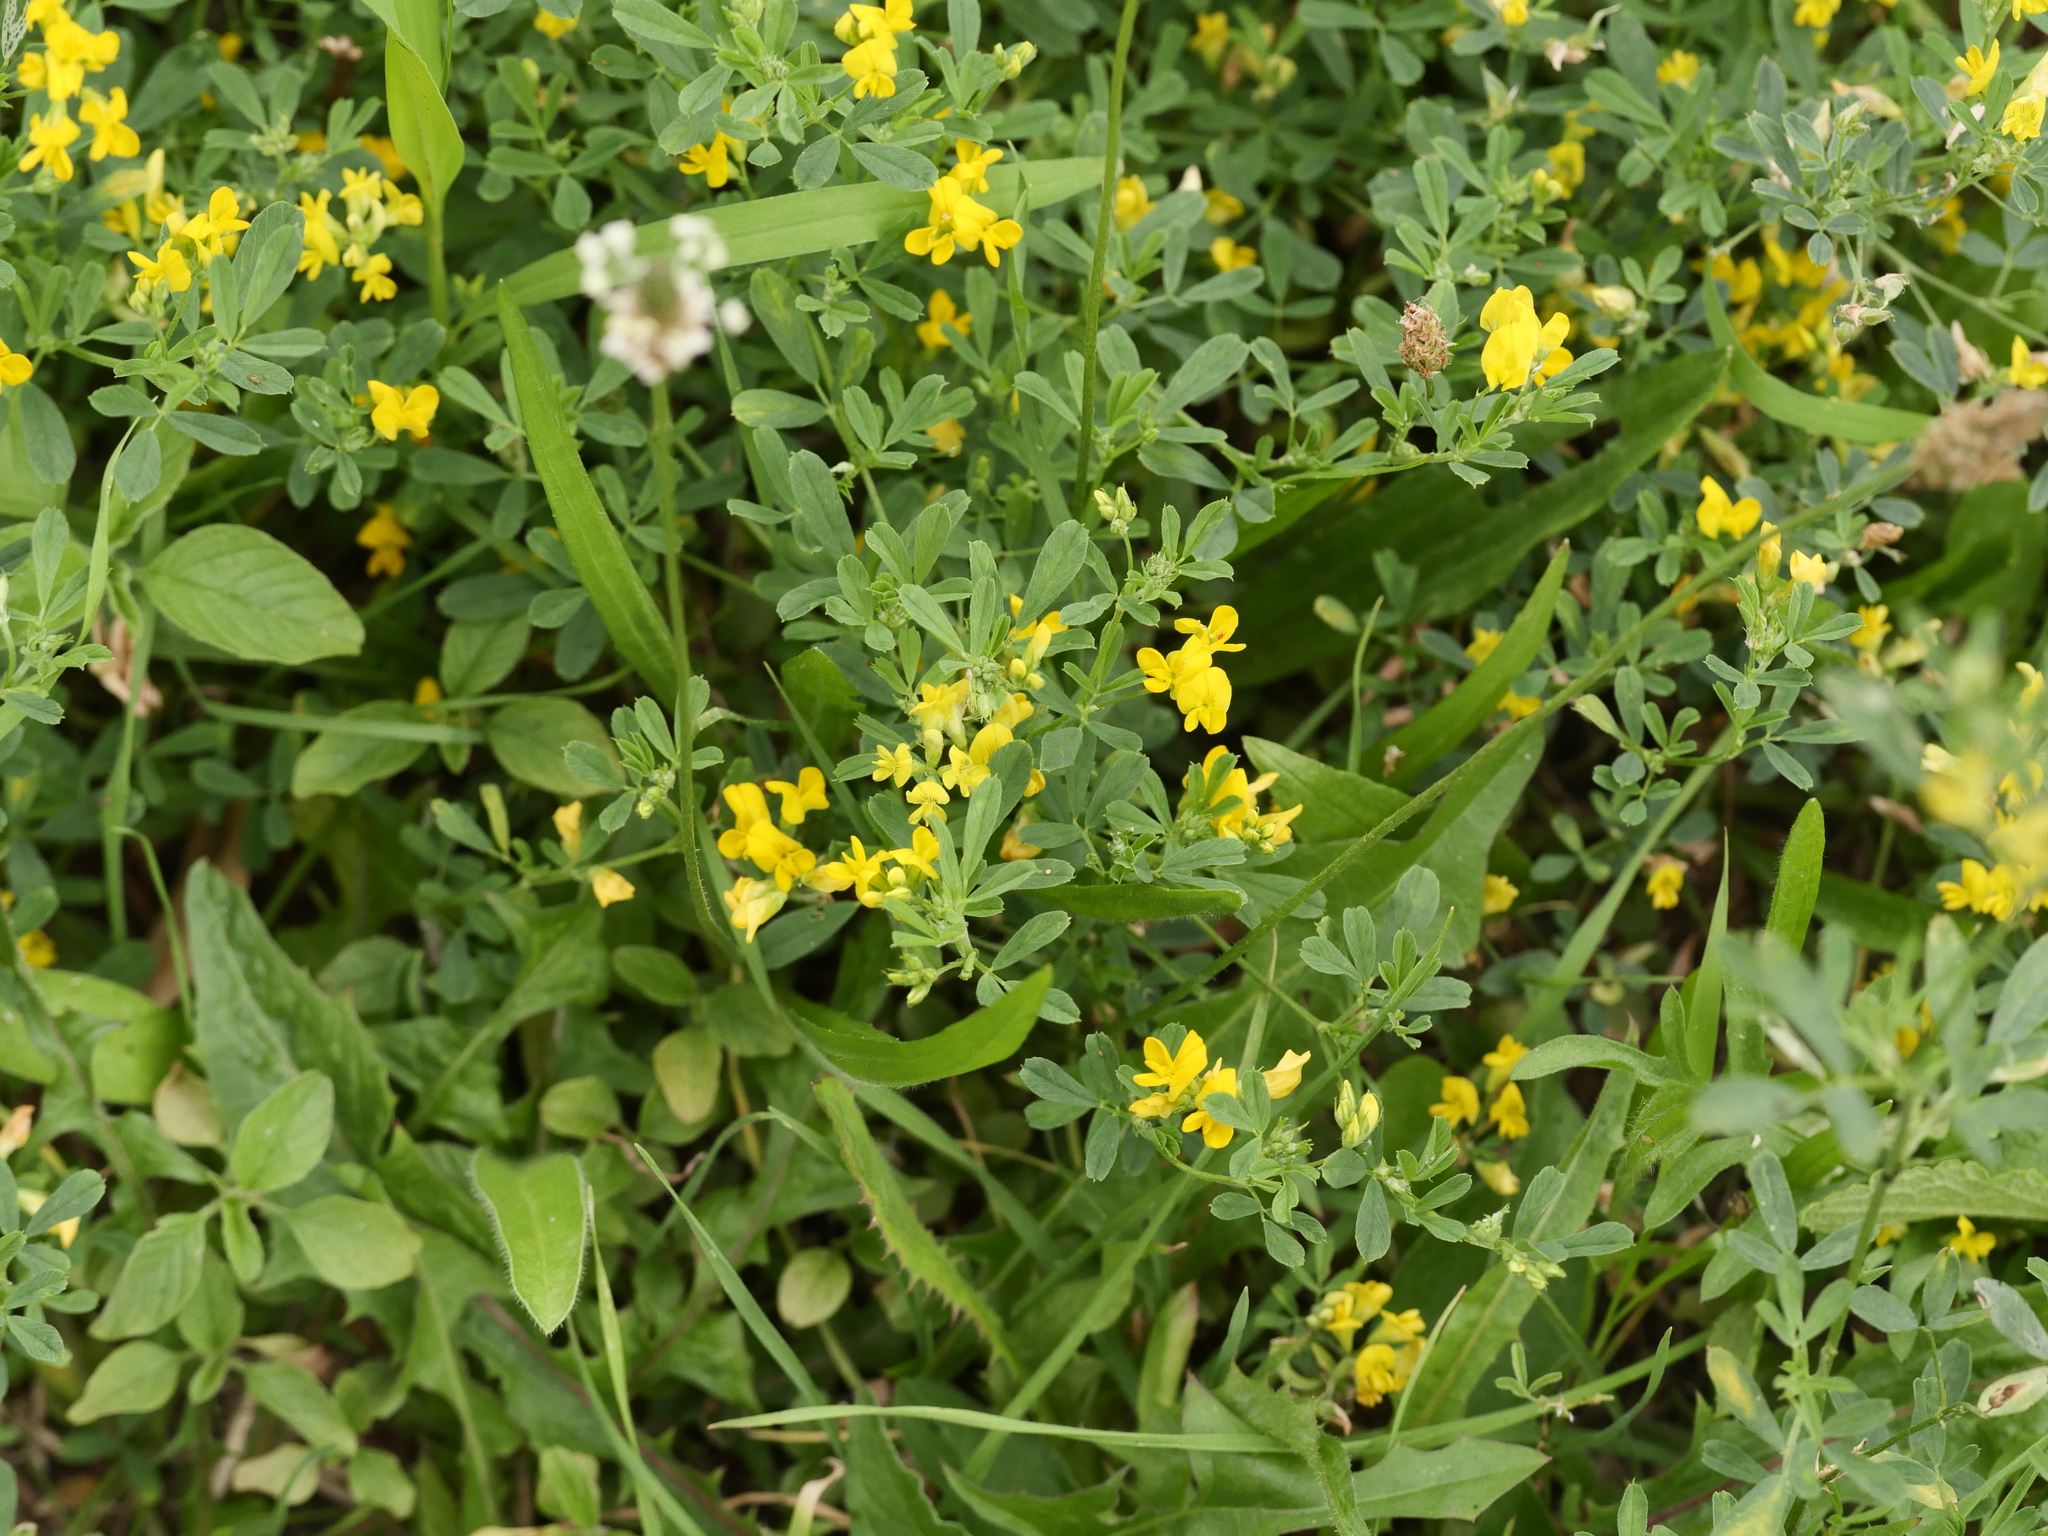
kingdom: Plantae
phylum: Tracheophyta
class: Magnoliopsida
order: Fabales
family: Fabaceae
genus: Medicago
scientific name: Medicago falcata
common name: Sickle medick
